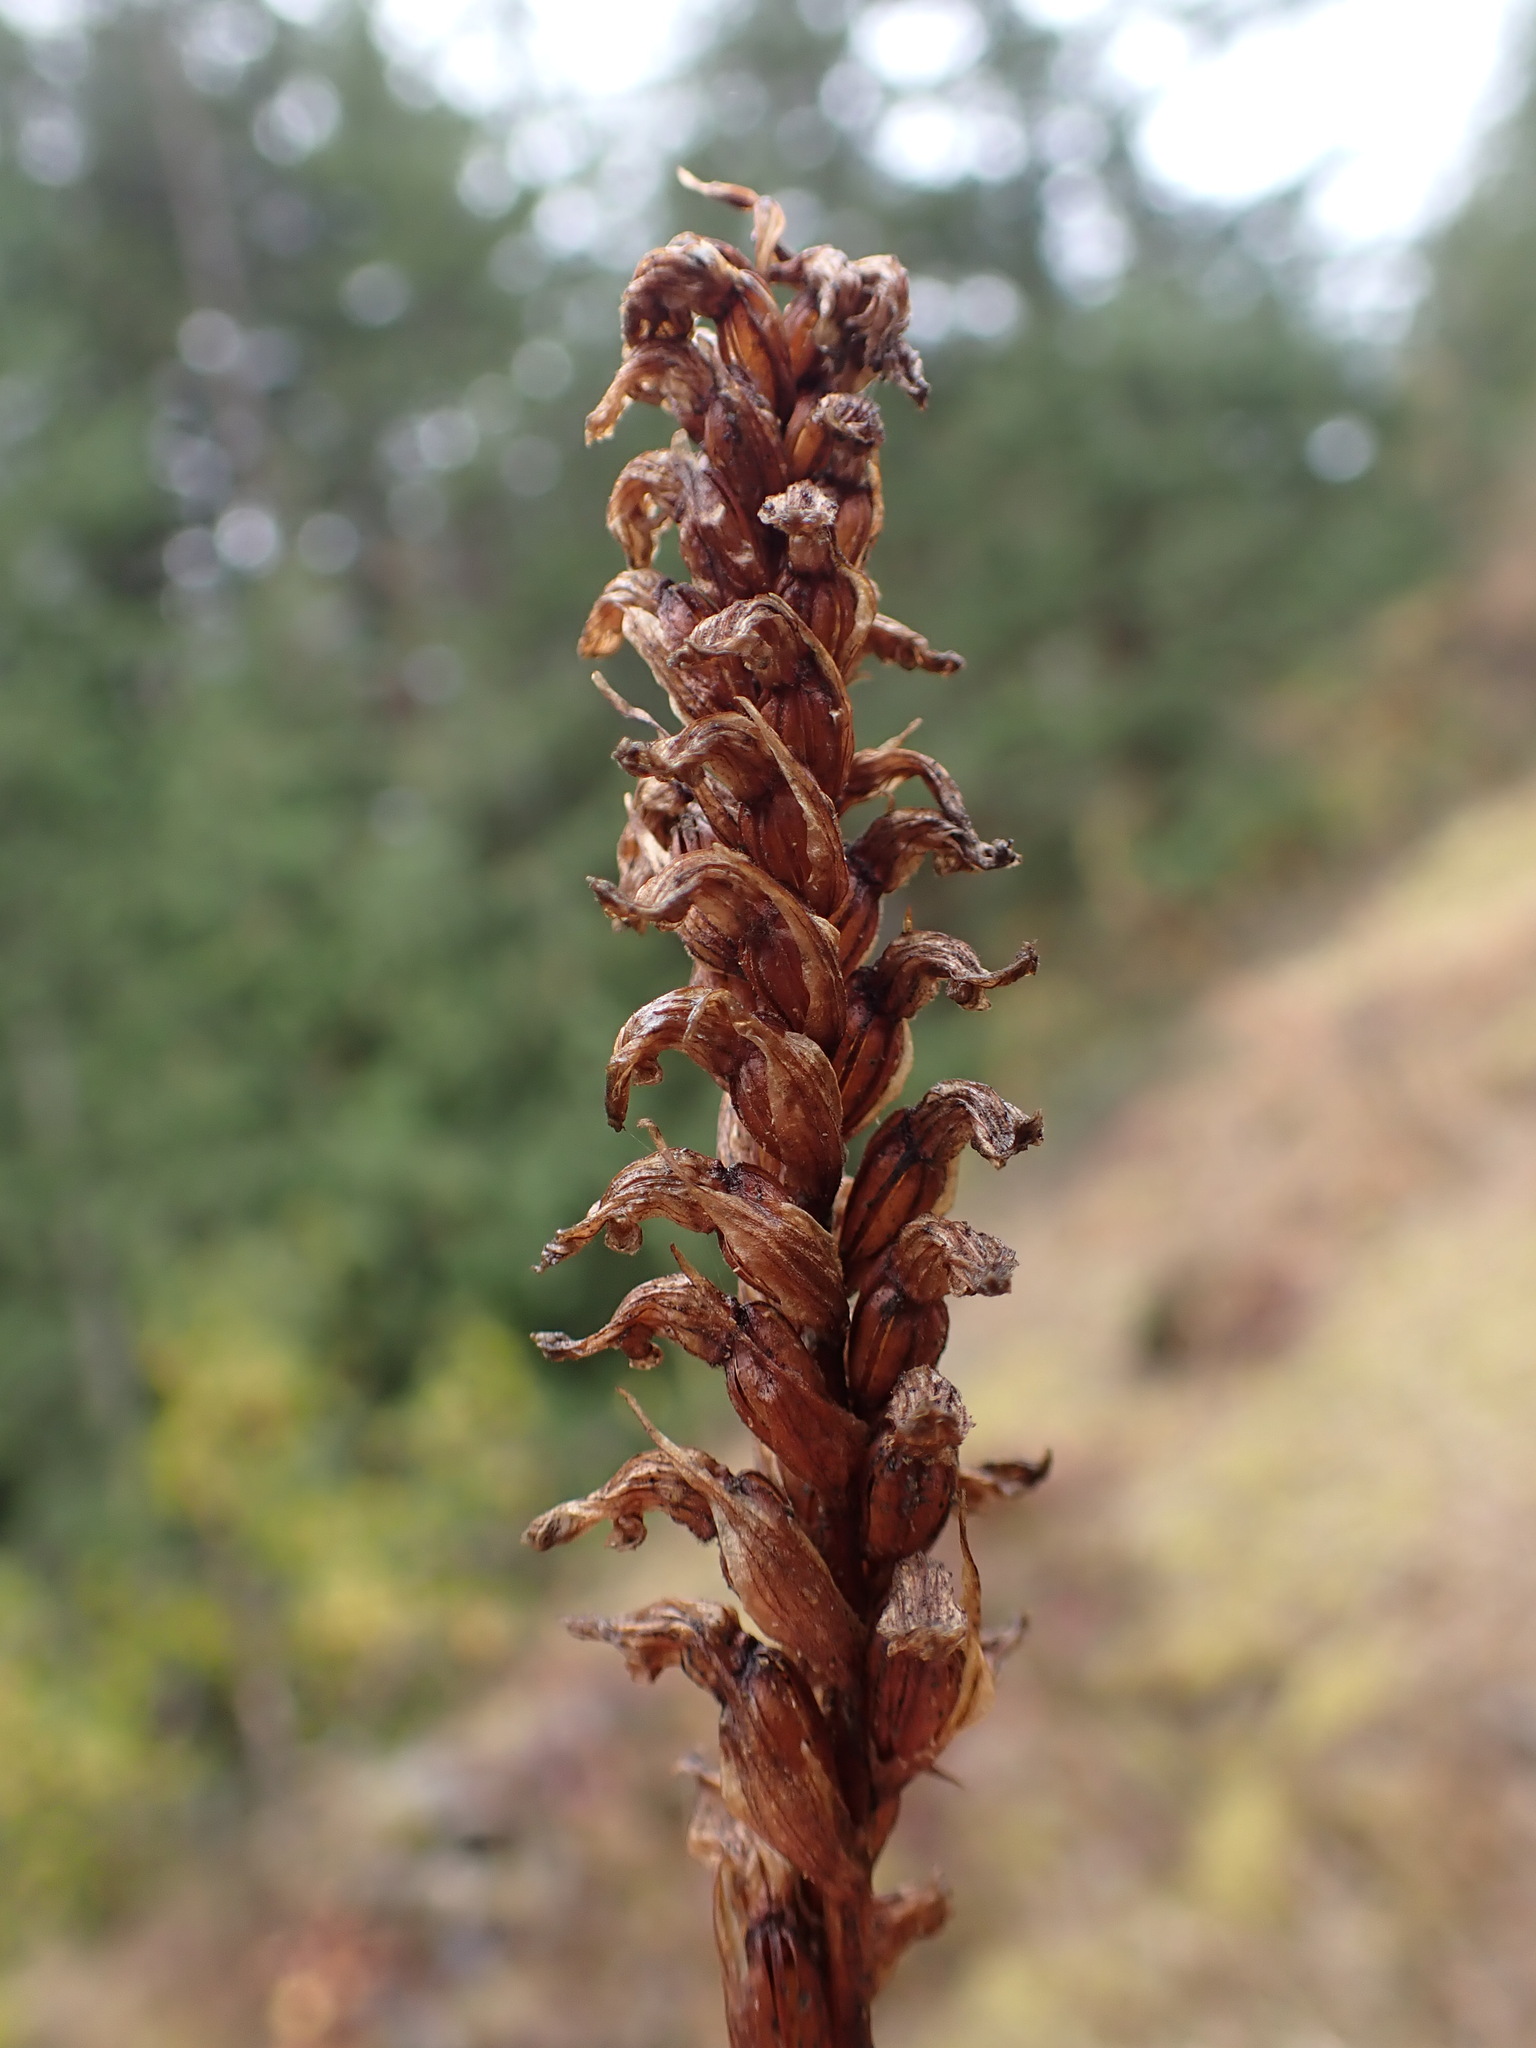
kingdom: Plantae
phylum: Tracheophyta
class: Liliopsida
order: Asparagales
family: Orchidaceae
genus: Spiranthes
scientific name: Spiranthes romanzoffiana
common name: Irish lady's-tresses
